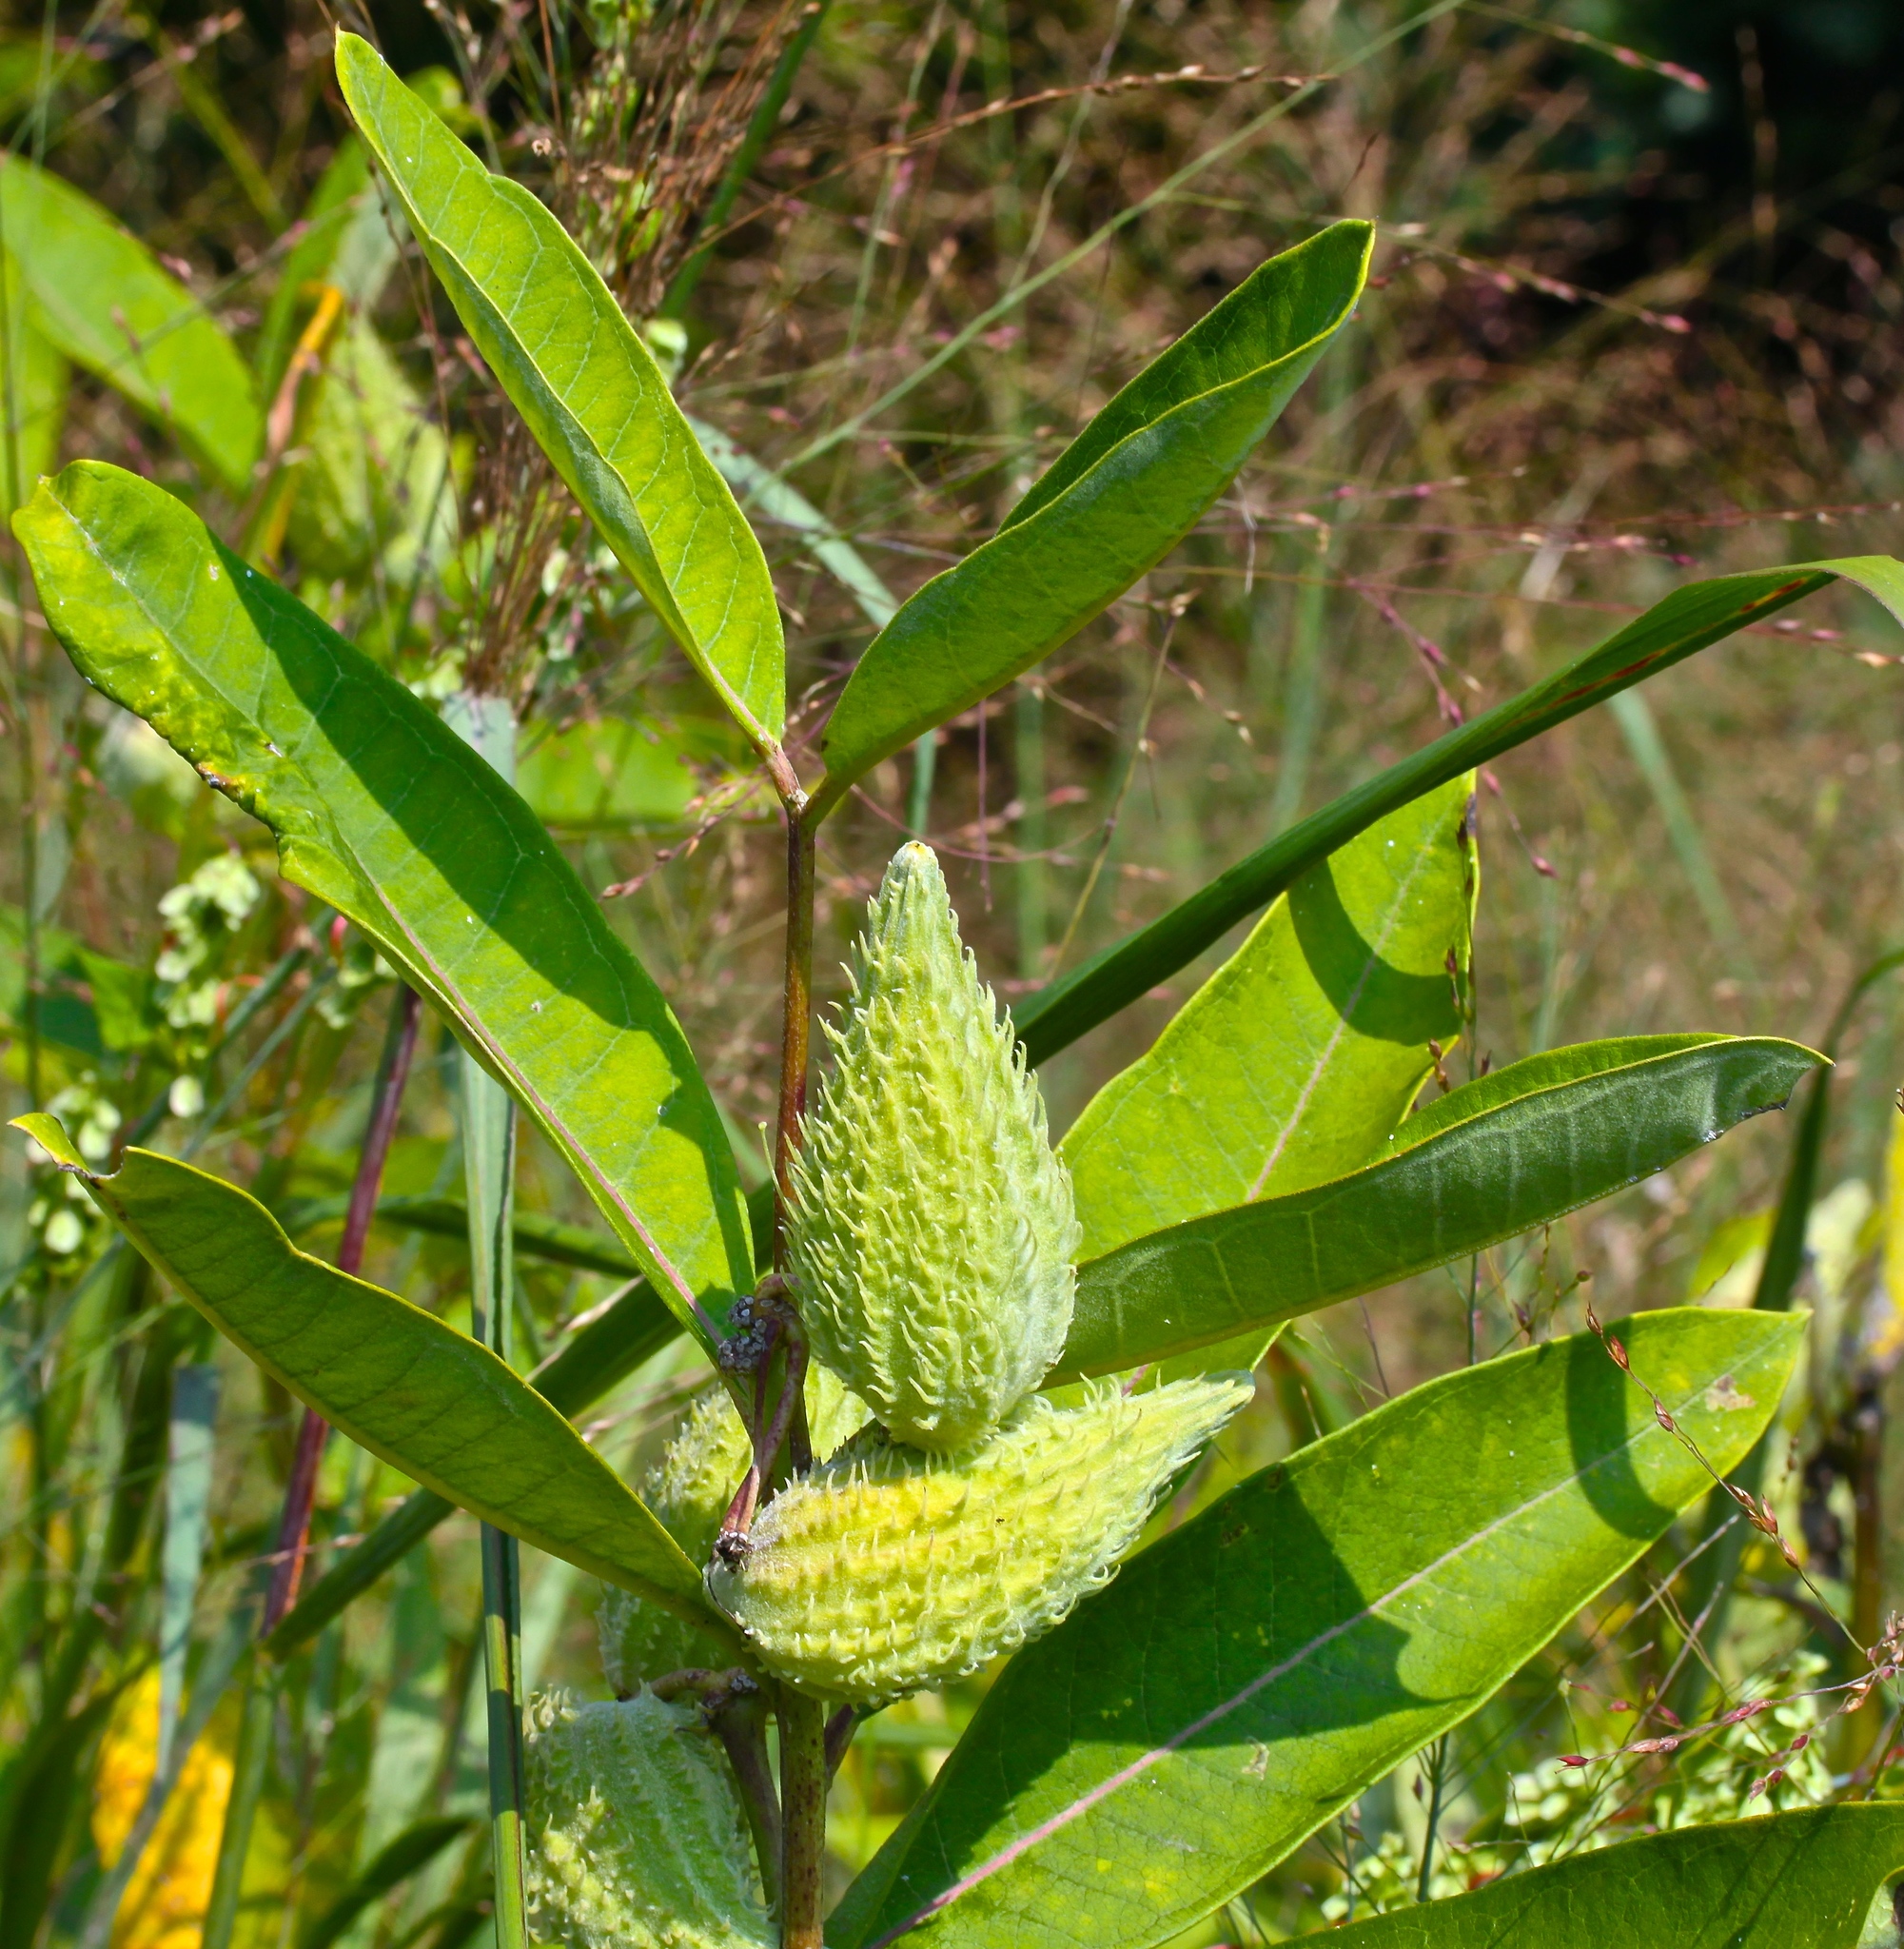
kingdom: Plantae
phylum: Tracheophyta
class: Magnoliopsida
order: Gentianales
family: Apocynaceae
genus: Asclepias
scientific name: Asclepias syriaca
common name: Common milkweed
